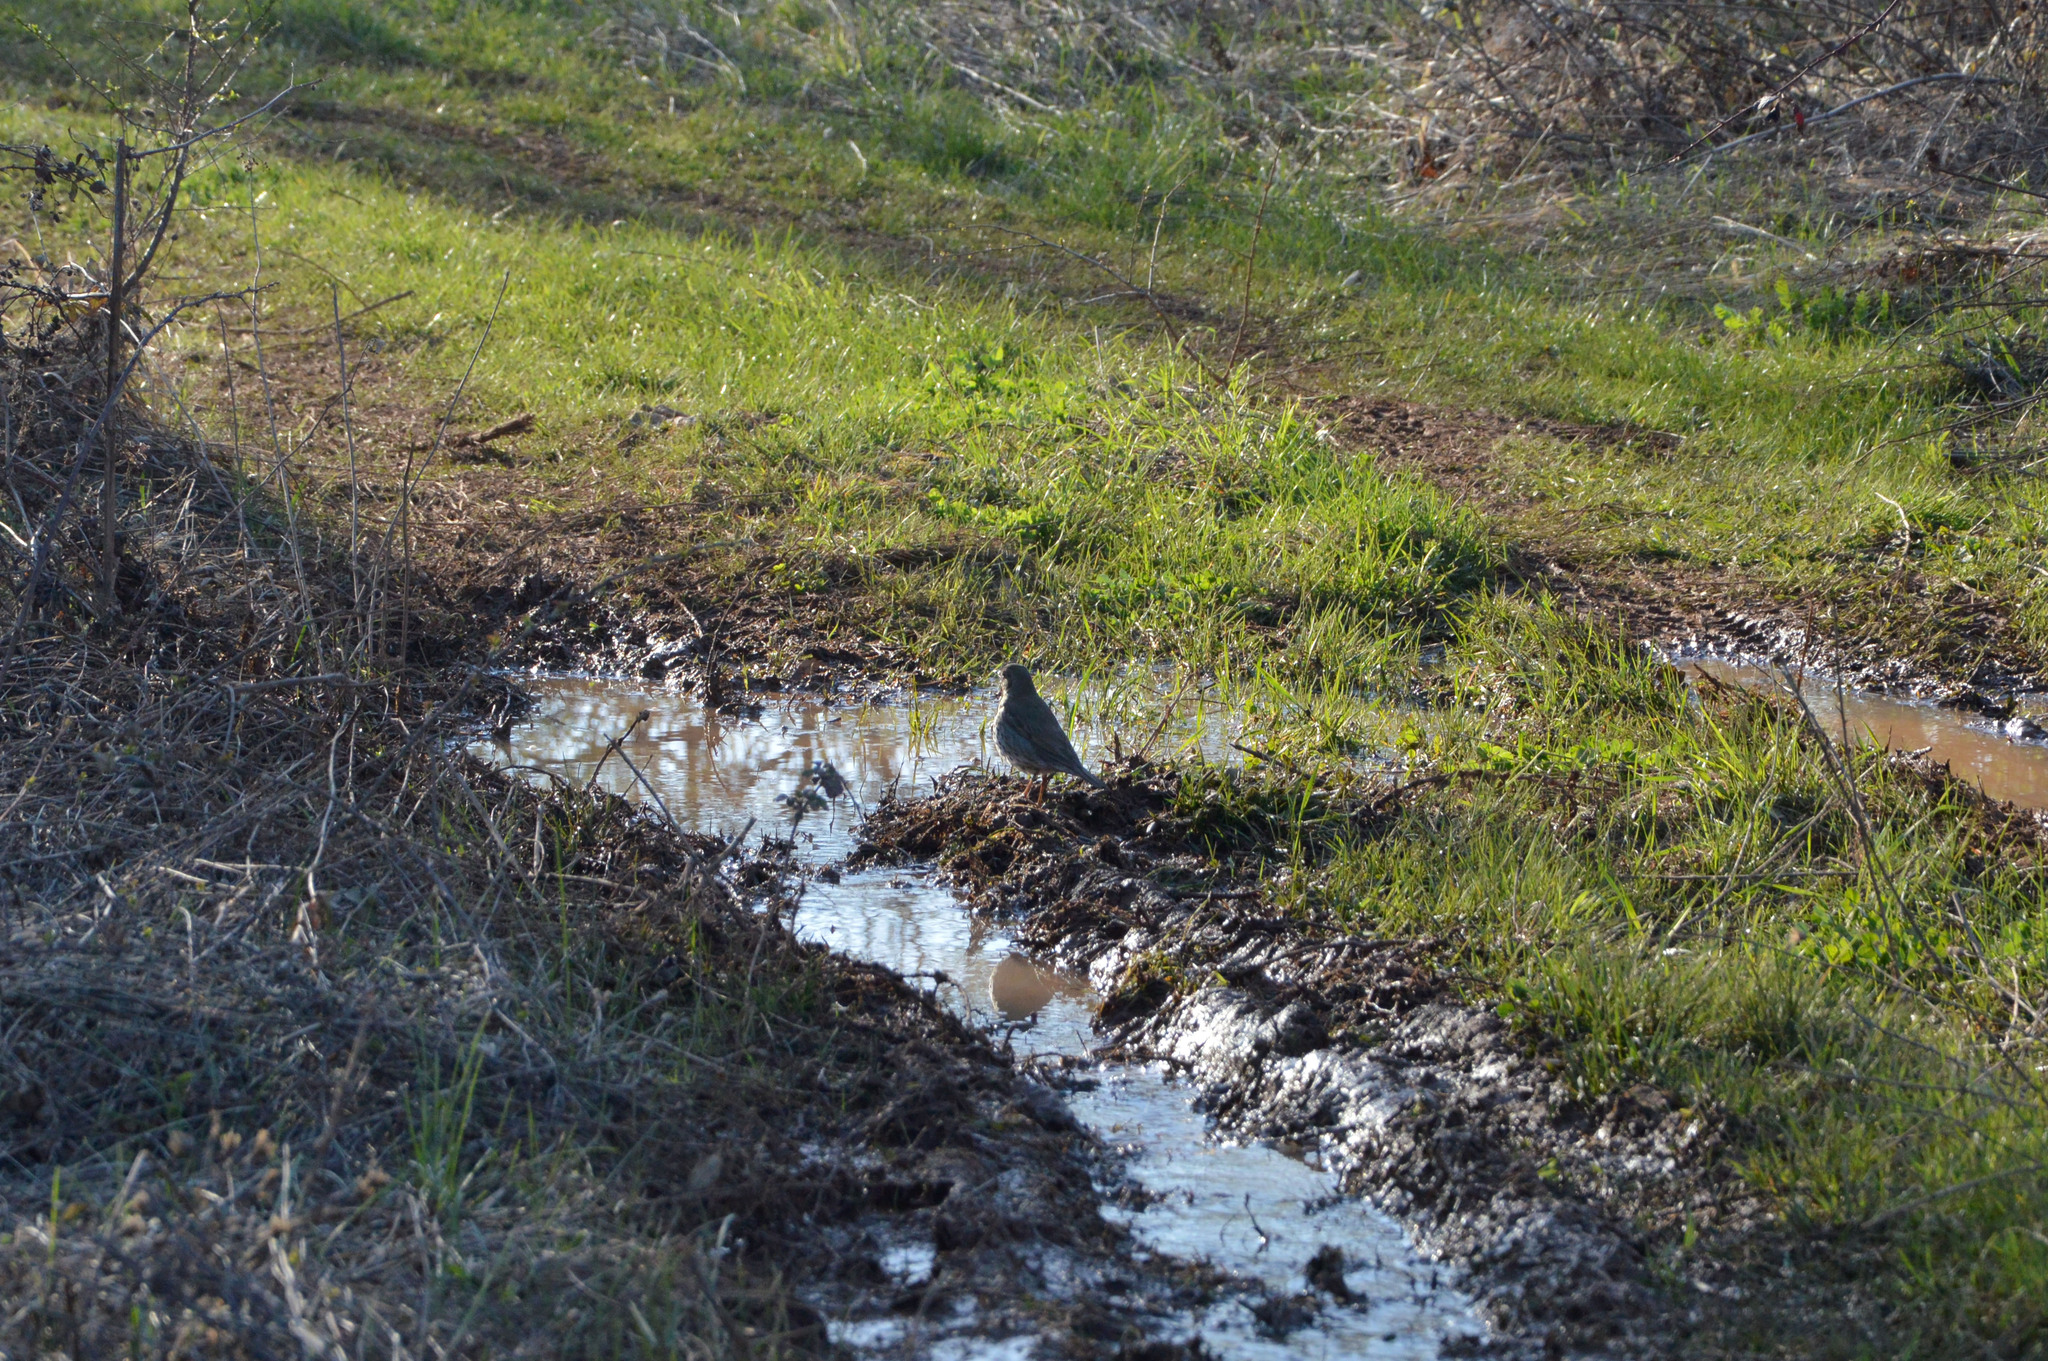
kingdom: Animalia
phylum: Chordata
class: Aves
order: Passeriformes
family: Turdidae
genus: Turdus
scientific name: Turdus philomelos
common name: Song thrush
